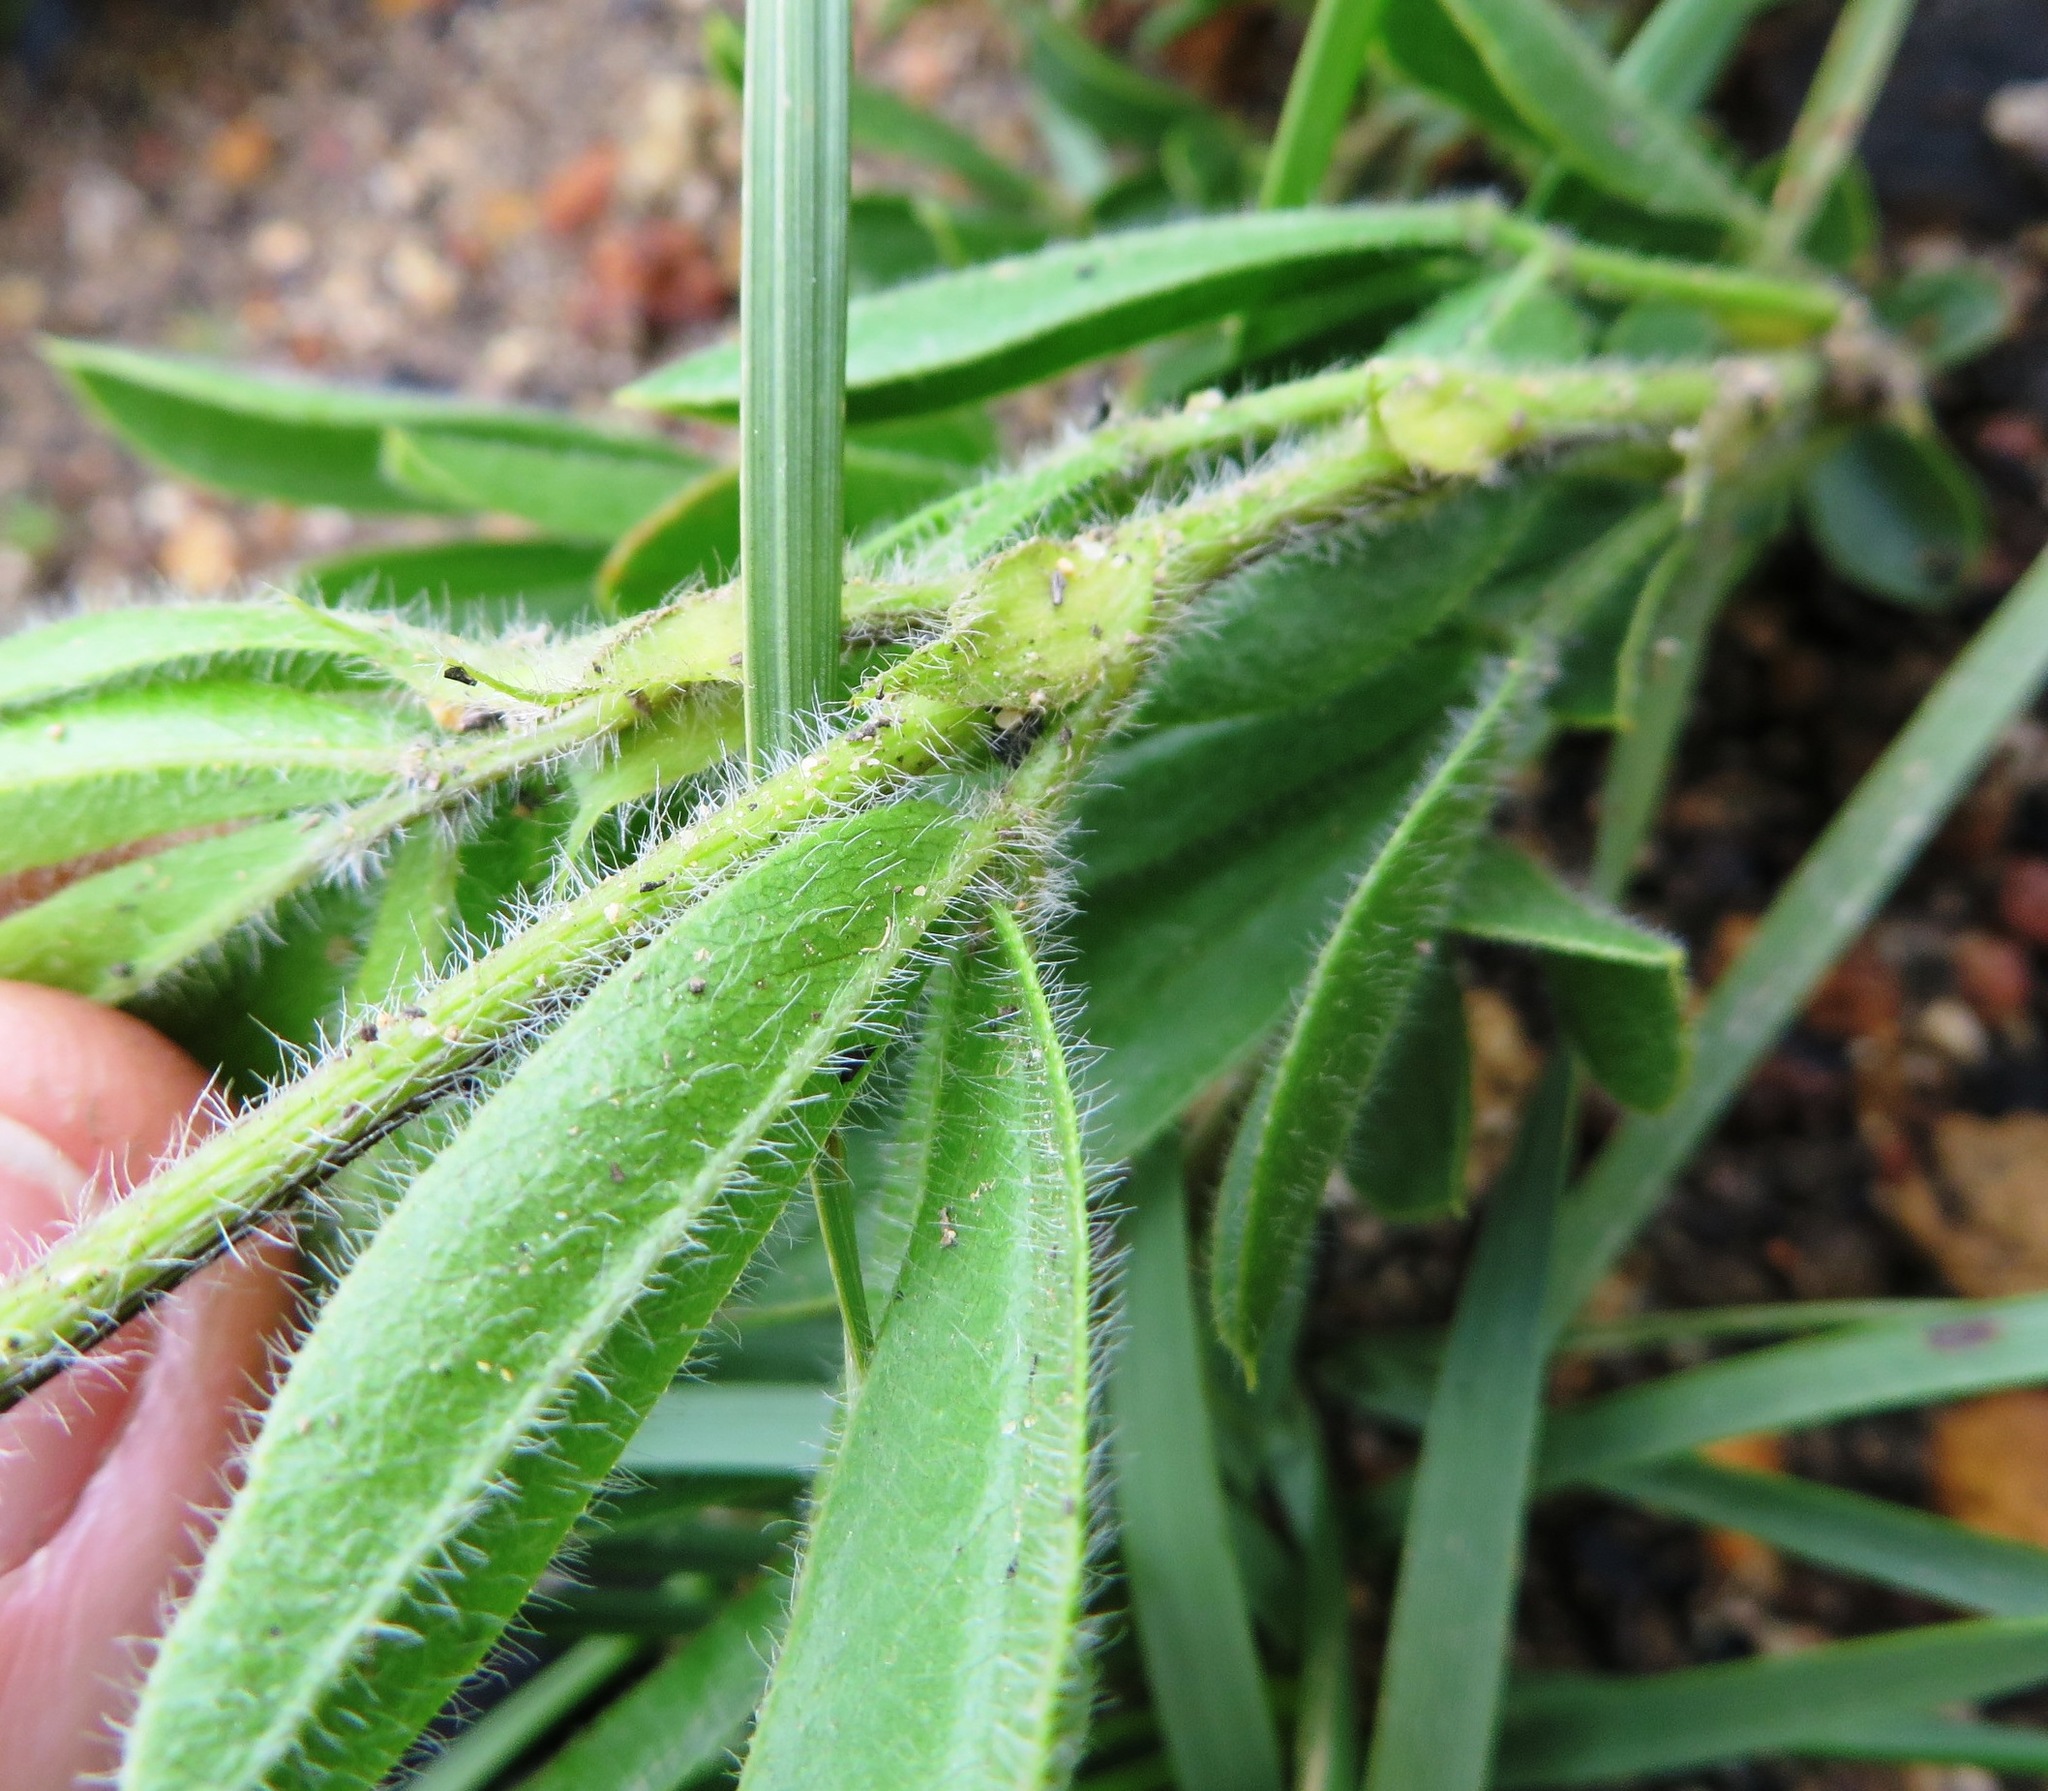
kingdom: Plantae
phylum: Tracheophyta
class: Magnoliopsida
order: Fabales
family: Fabaceae
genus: Psoralea
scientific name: Psoralea zeyheri
